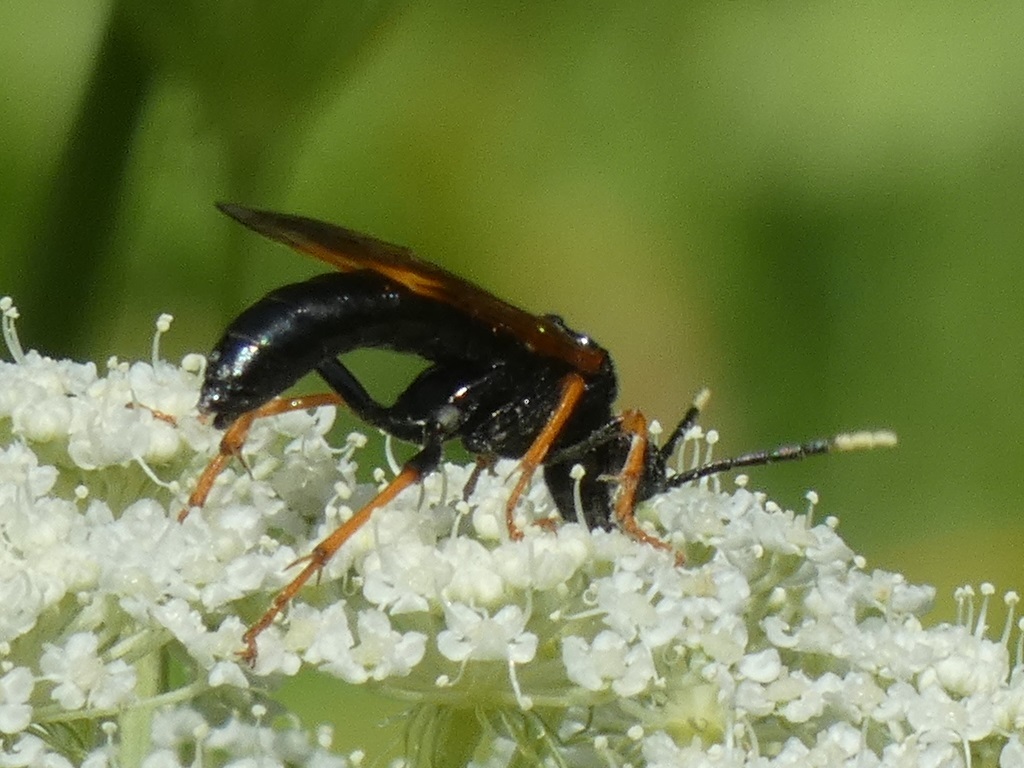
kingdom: Animalia
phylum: Arthropoda
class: Insecta
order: Hymenoptera
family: Tenthredinidae
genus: Tenthredo
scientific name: Tenthredo crassa
